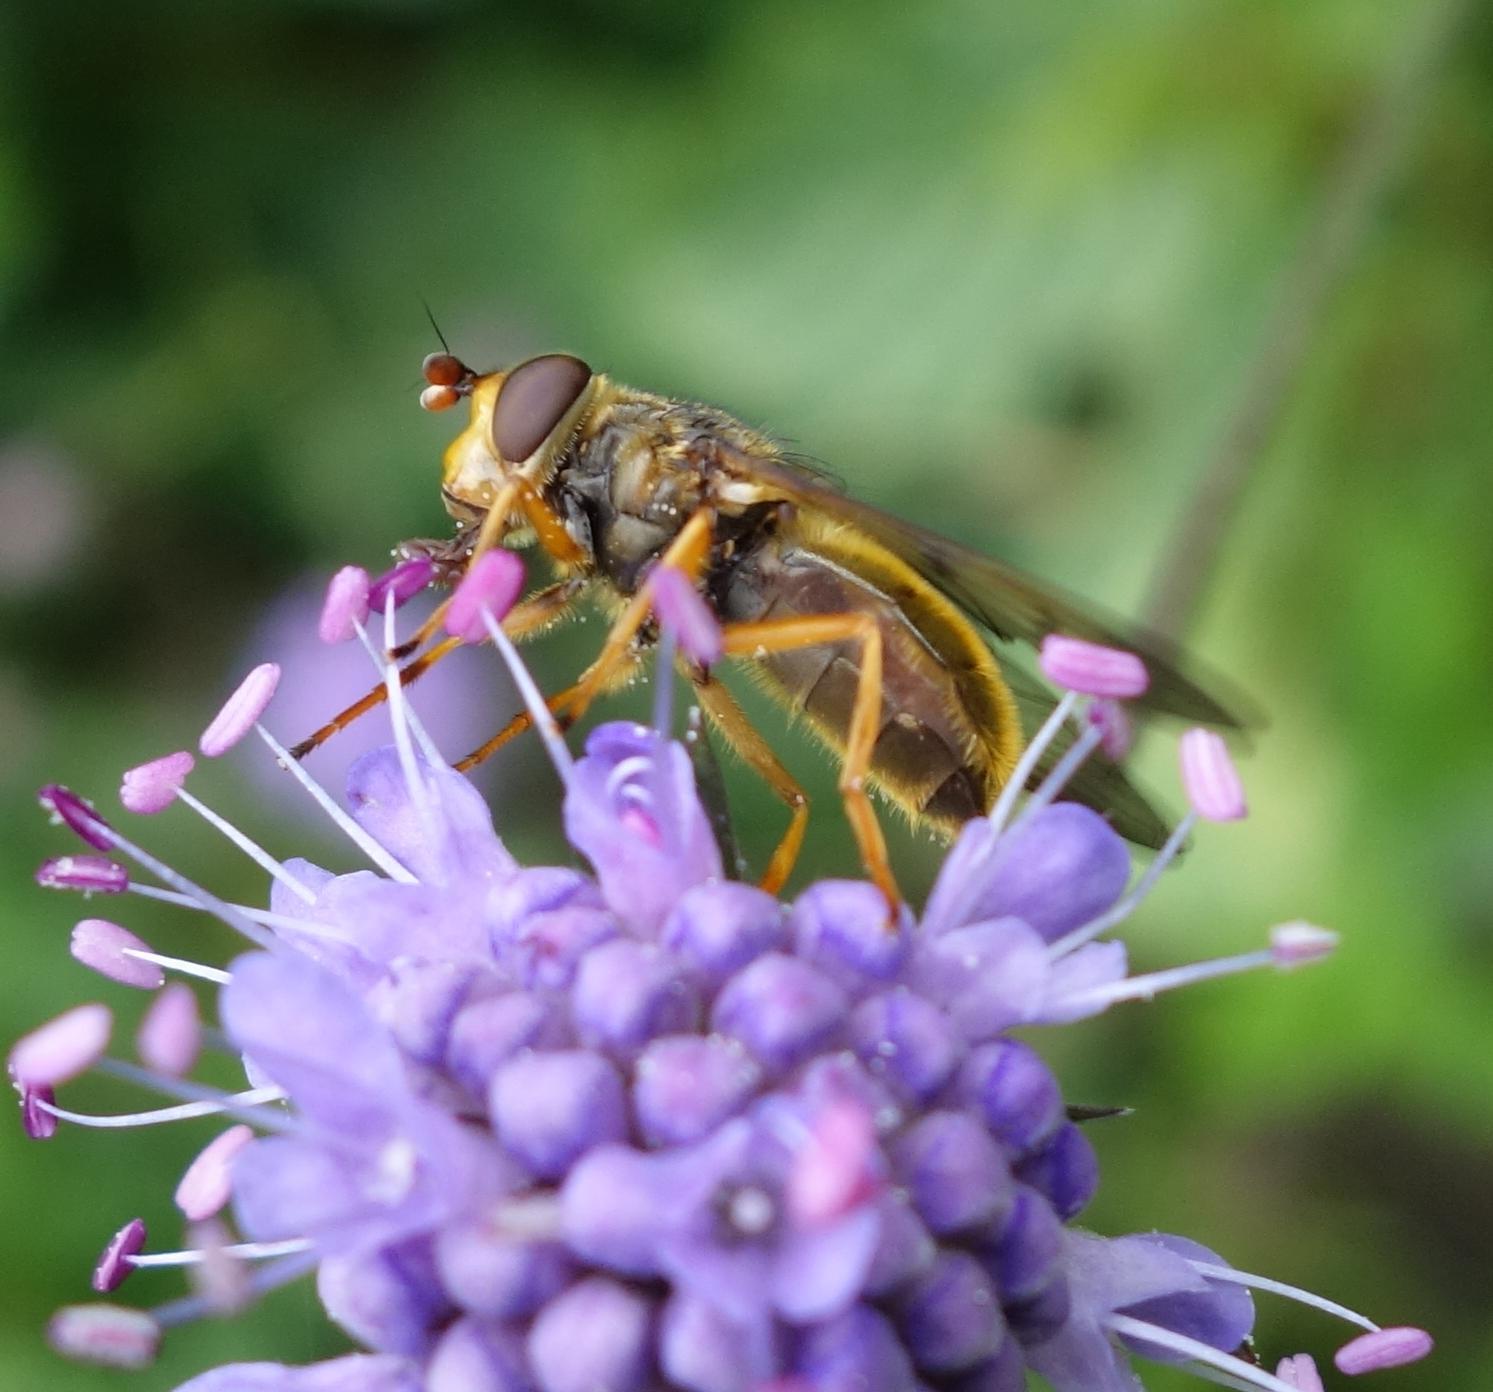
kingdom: Animalia
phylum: Arthropoda
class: Insecta
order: Diptera
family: Syrphidae
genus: Ferdinandea
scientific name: Ferdinandea cuprea
